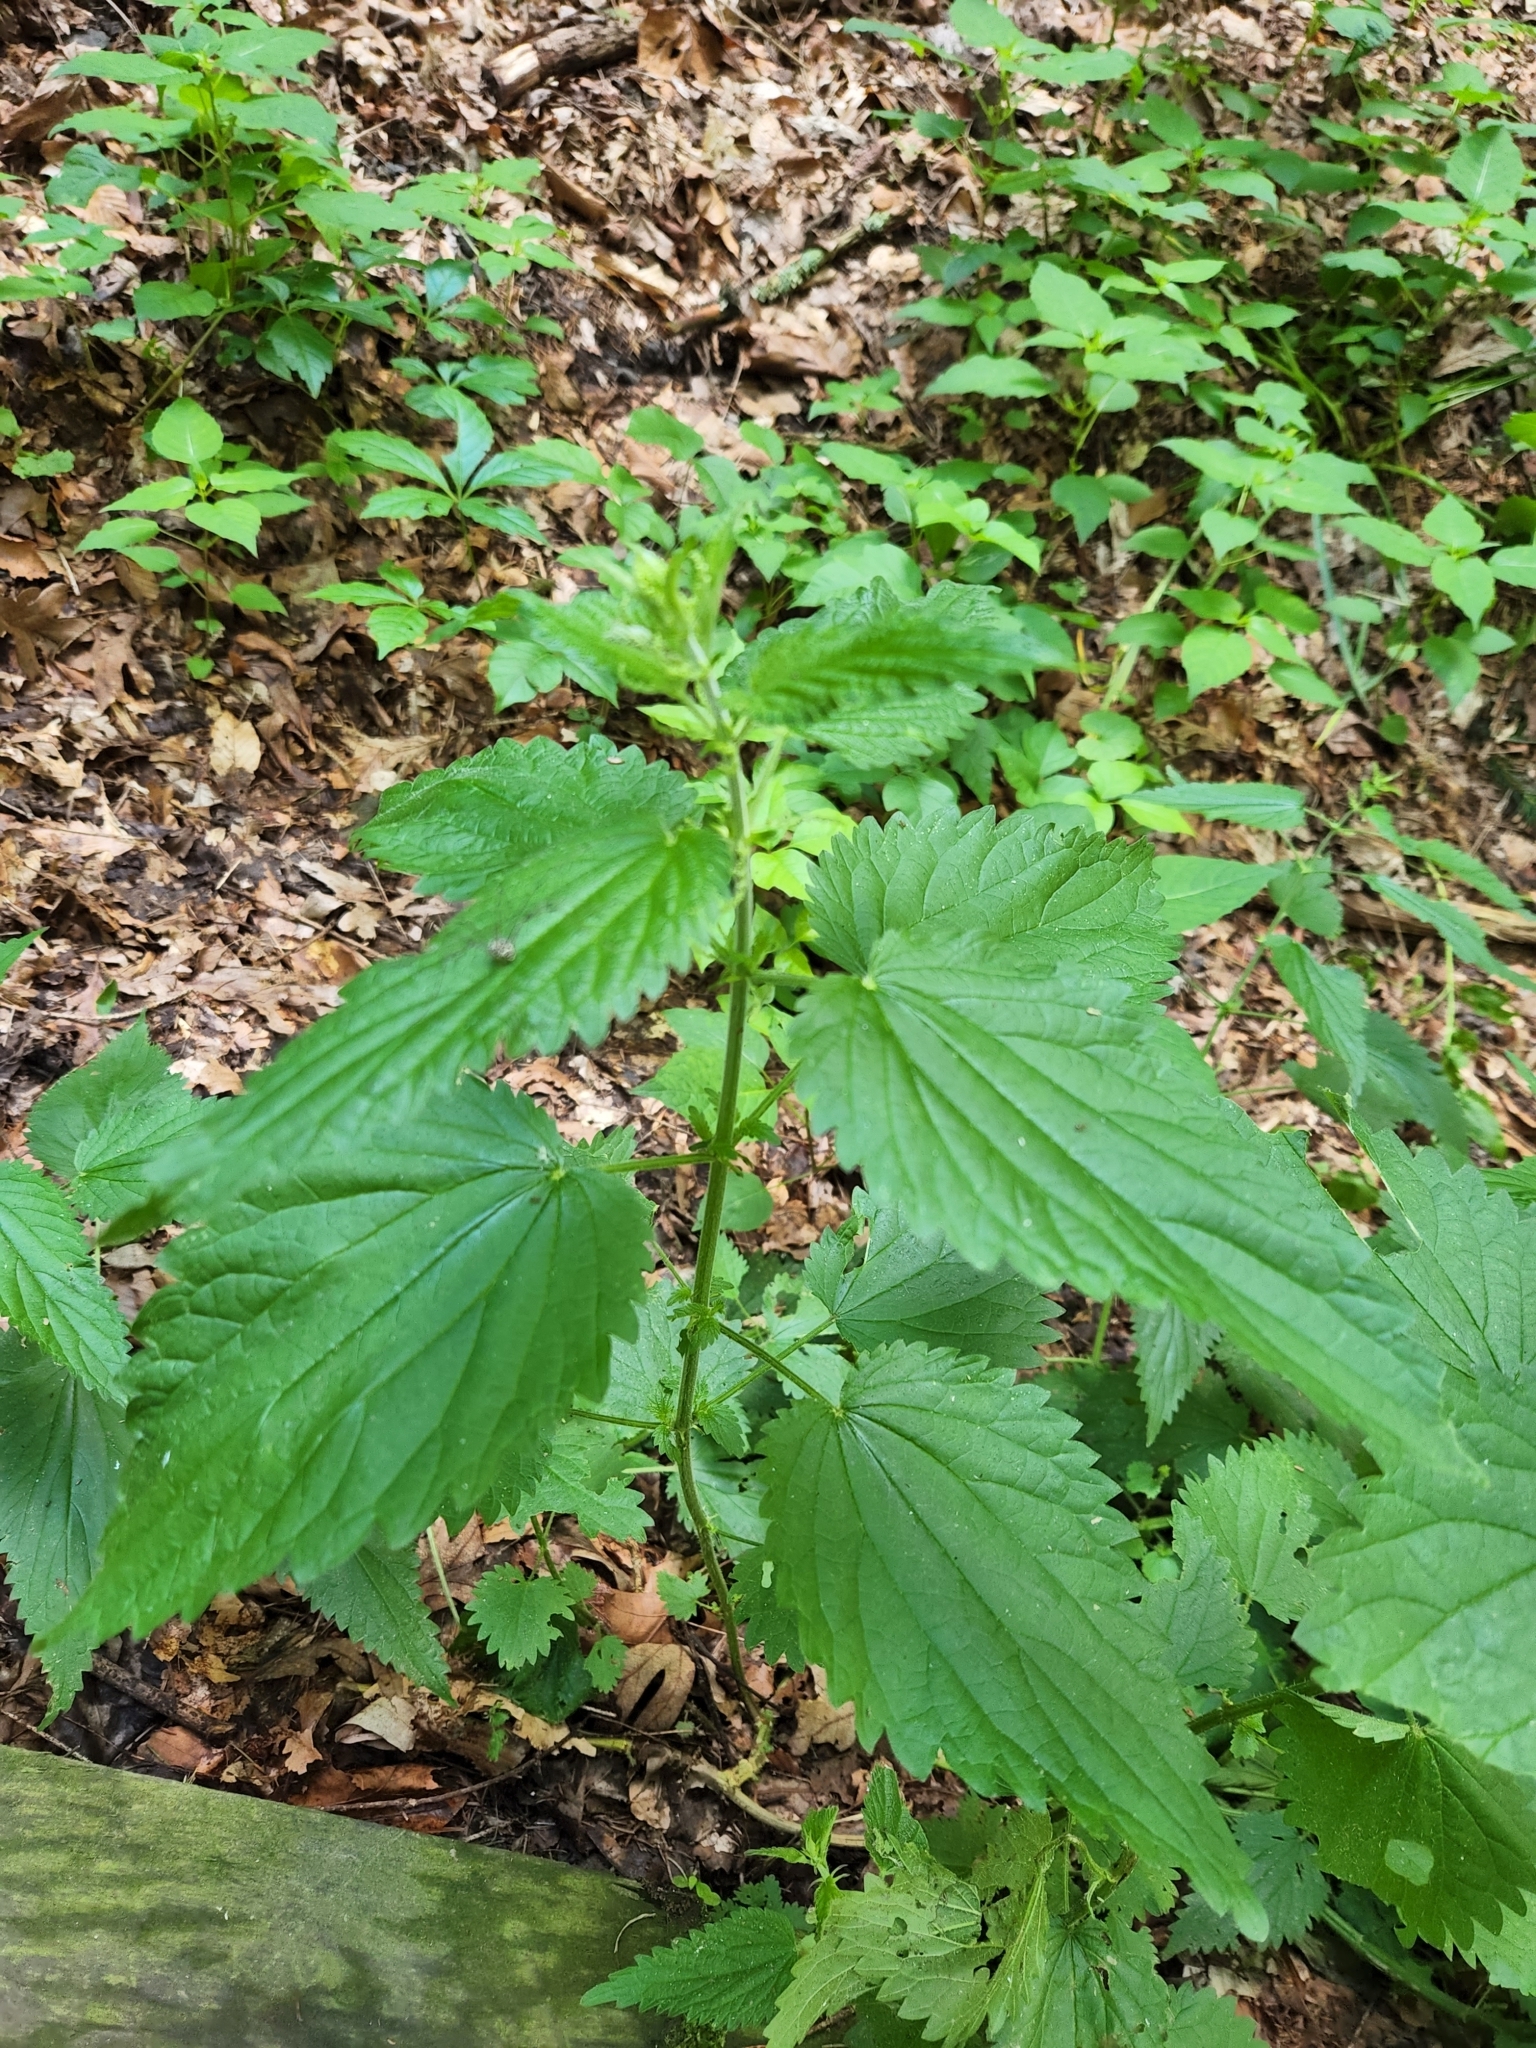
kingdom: Plantae
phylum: Tracheophyta
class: Magnoliopsida
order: Rosales
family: Urticaceae
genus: Urtica
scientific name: Urtica dioica
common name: Common nettle
